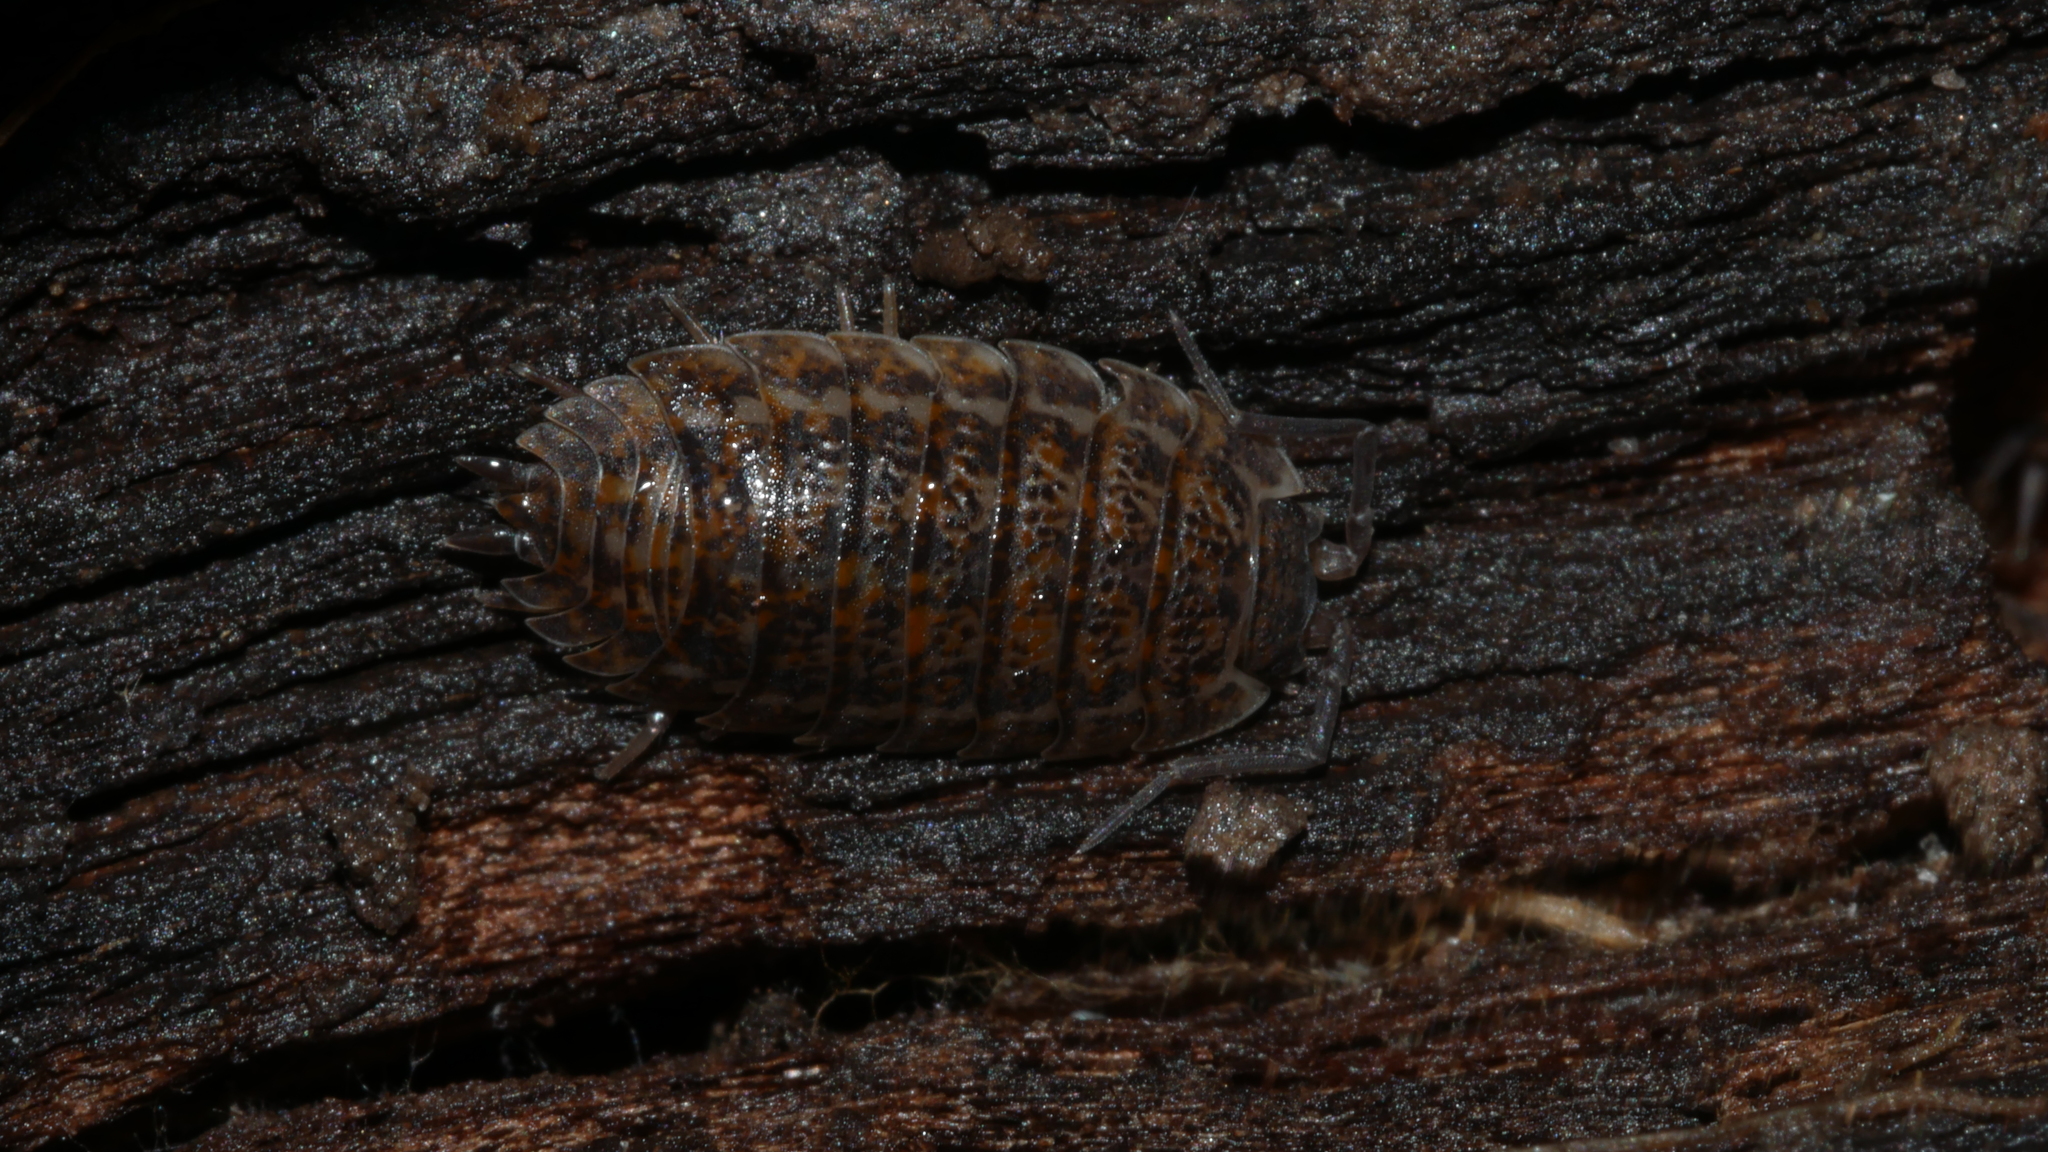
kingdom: Animalia
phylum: Arthropoda
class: Malacostraca
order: Isopoda
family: Trachelipodidae
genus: Trachelipus
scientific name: Trachelipus rathkii
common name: Isopod
